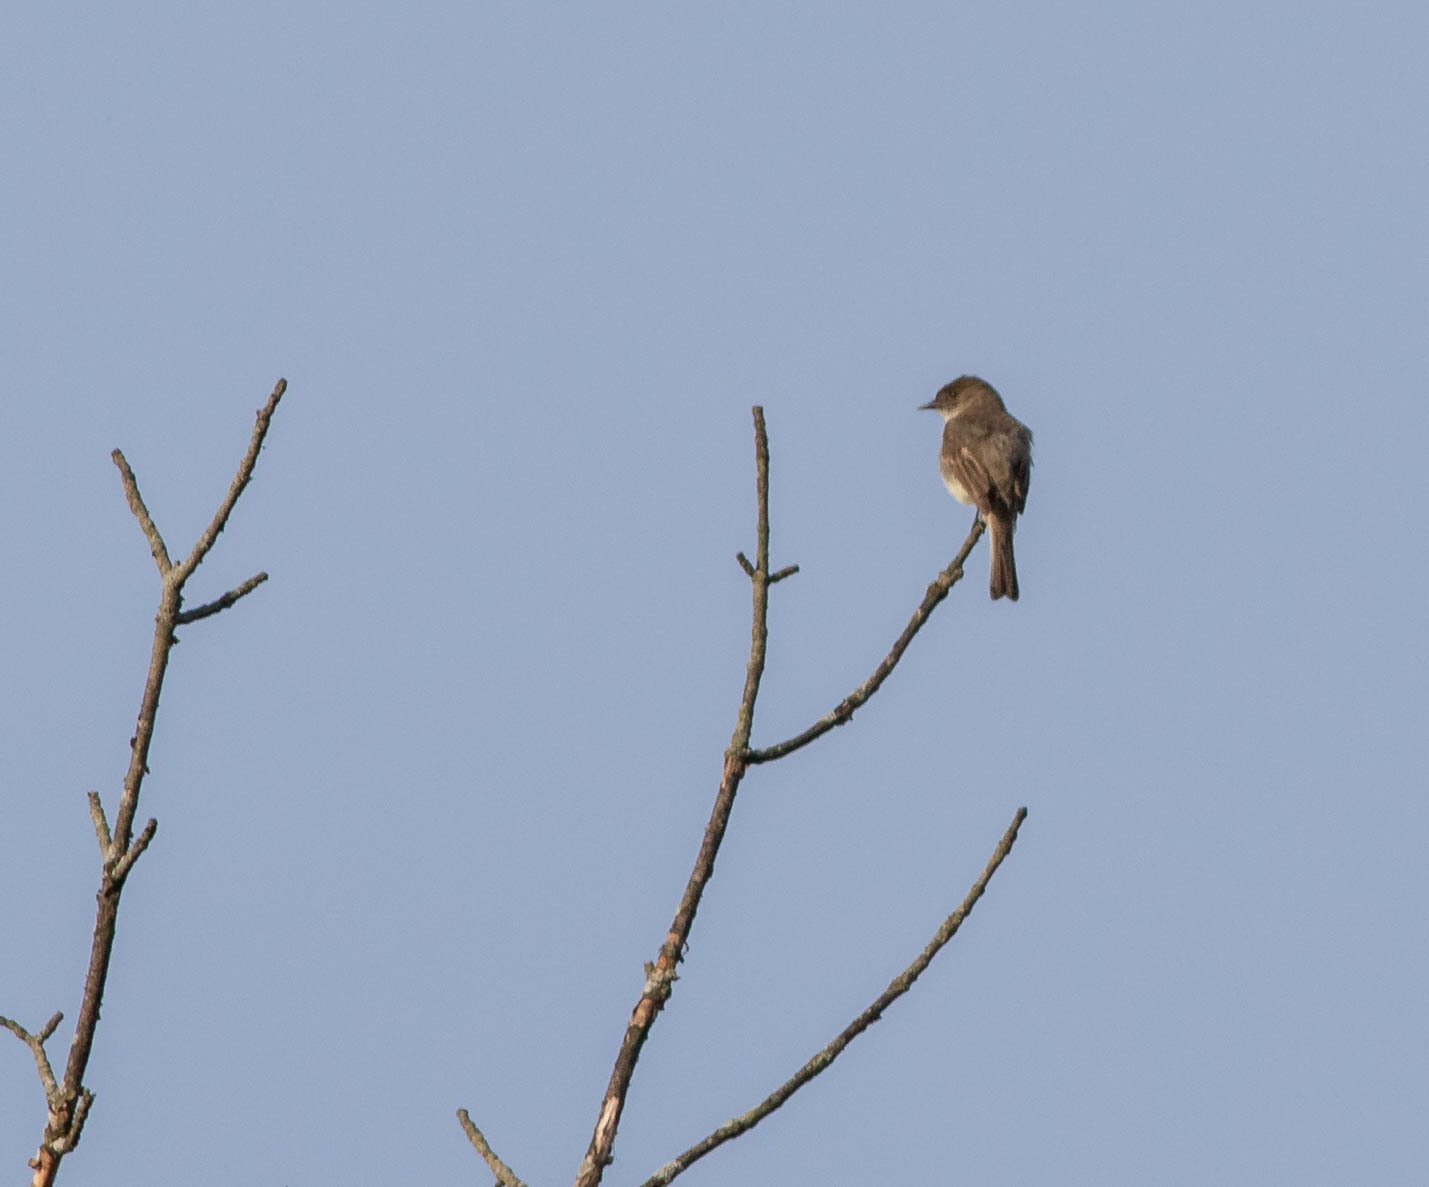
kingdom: Animalia
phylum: Chordata
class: Aves
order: Passeriformes
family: Tyrannidae
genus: Sayornis
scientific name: Sayornis phoebe
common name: Eastern phoebe
